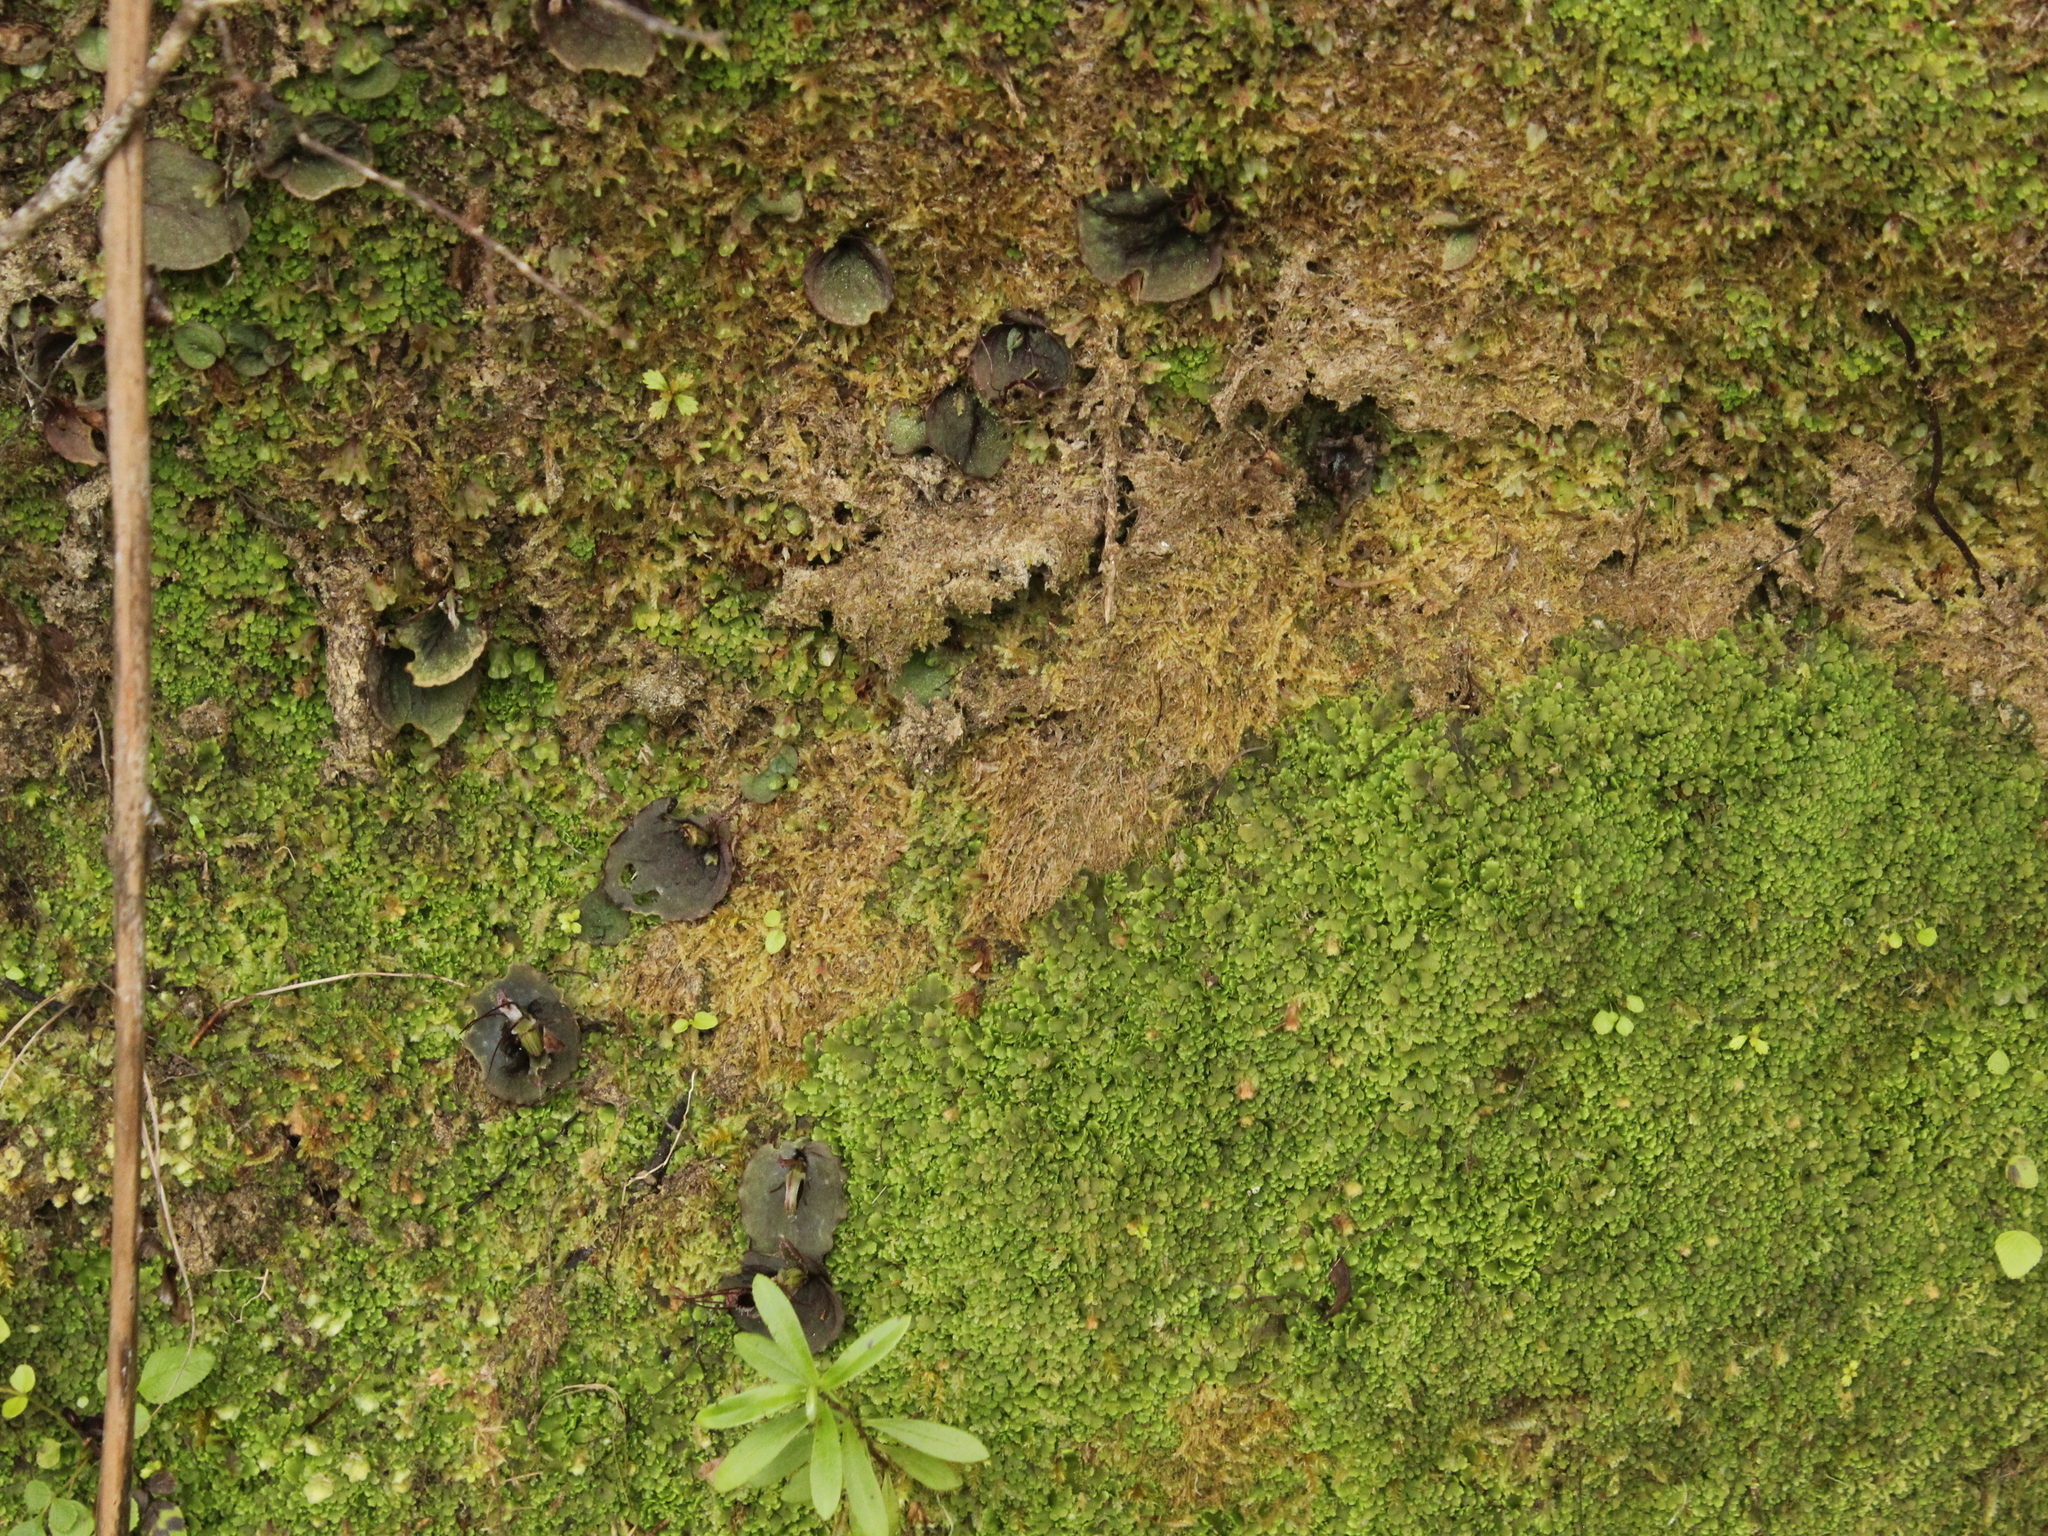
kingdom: Plantae
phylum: Tracheophyta
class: Liliopsida
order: Asparagales
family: Orchidaceae
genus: Corybas
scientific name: Corybas oblongus
